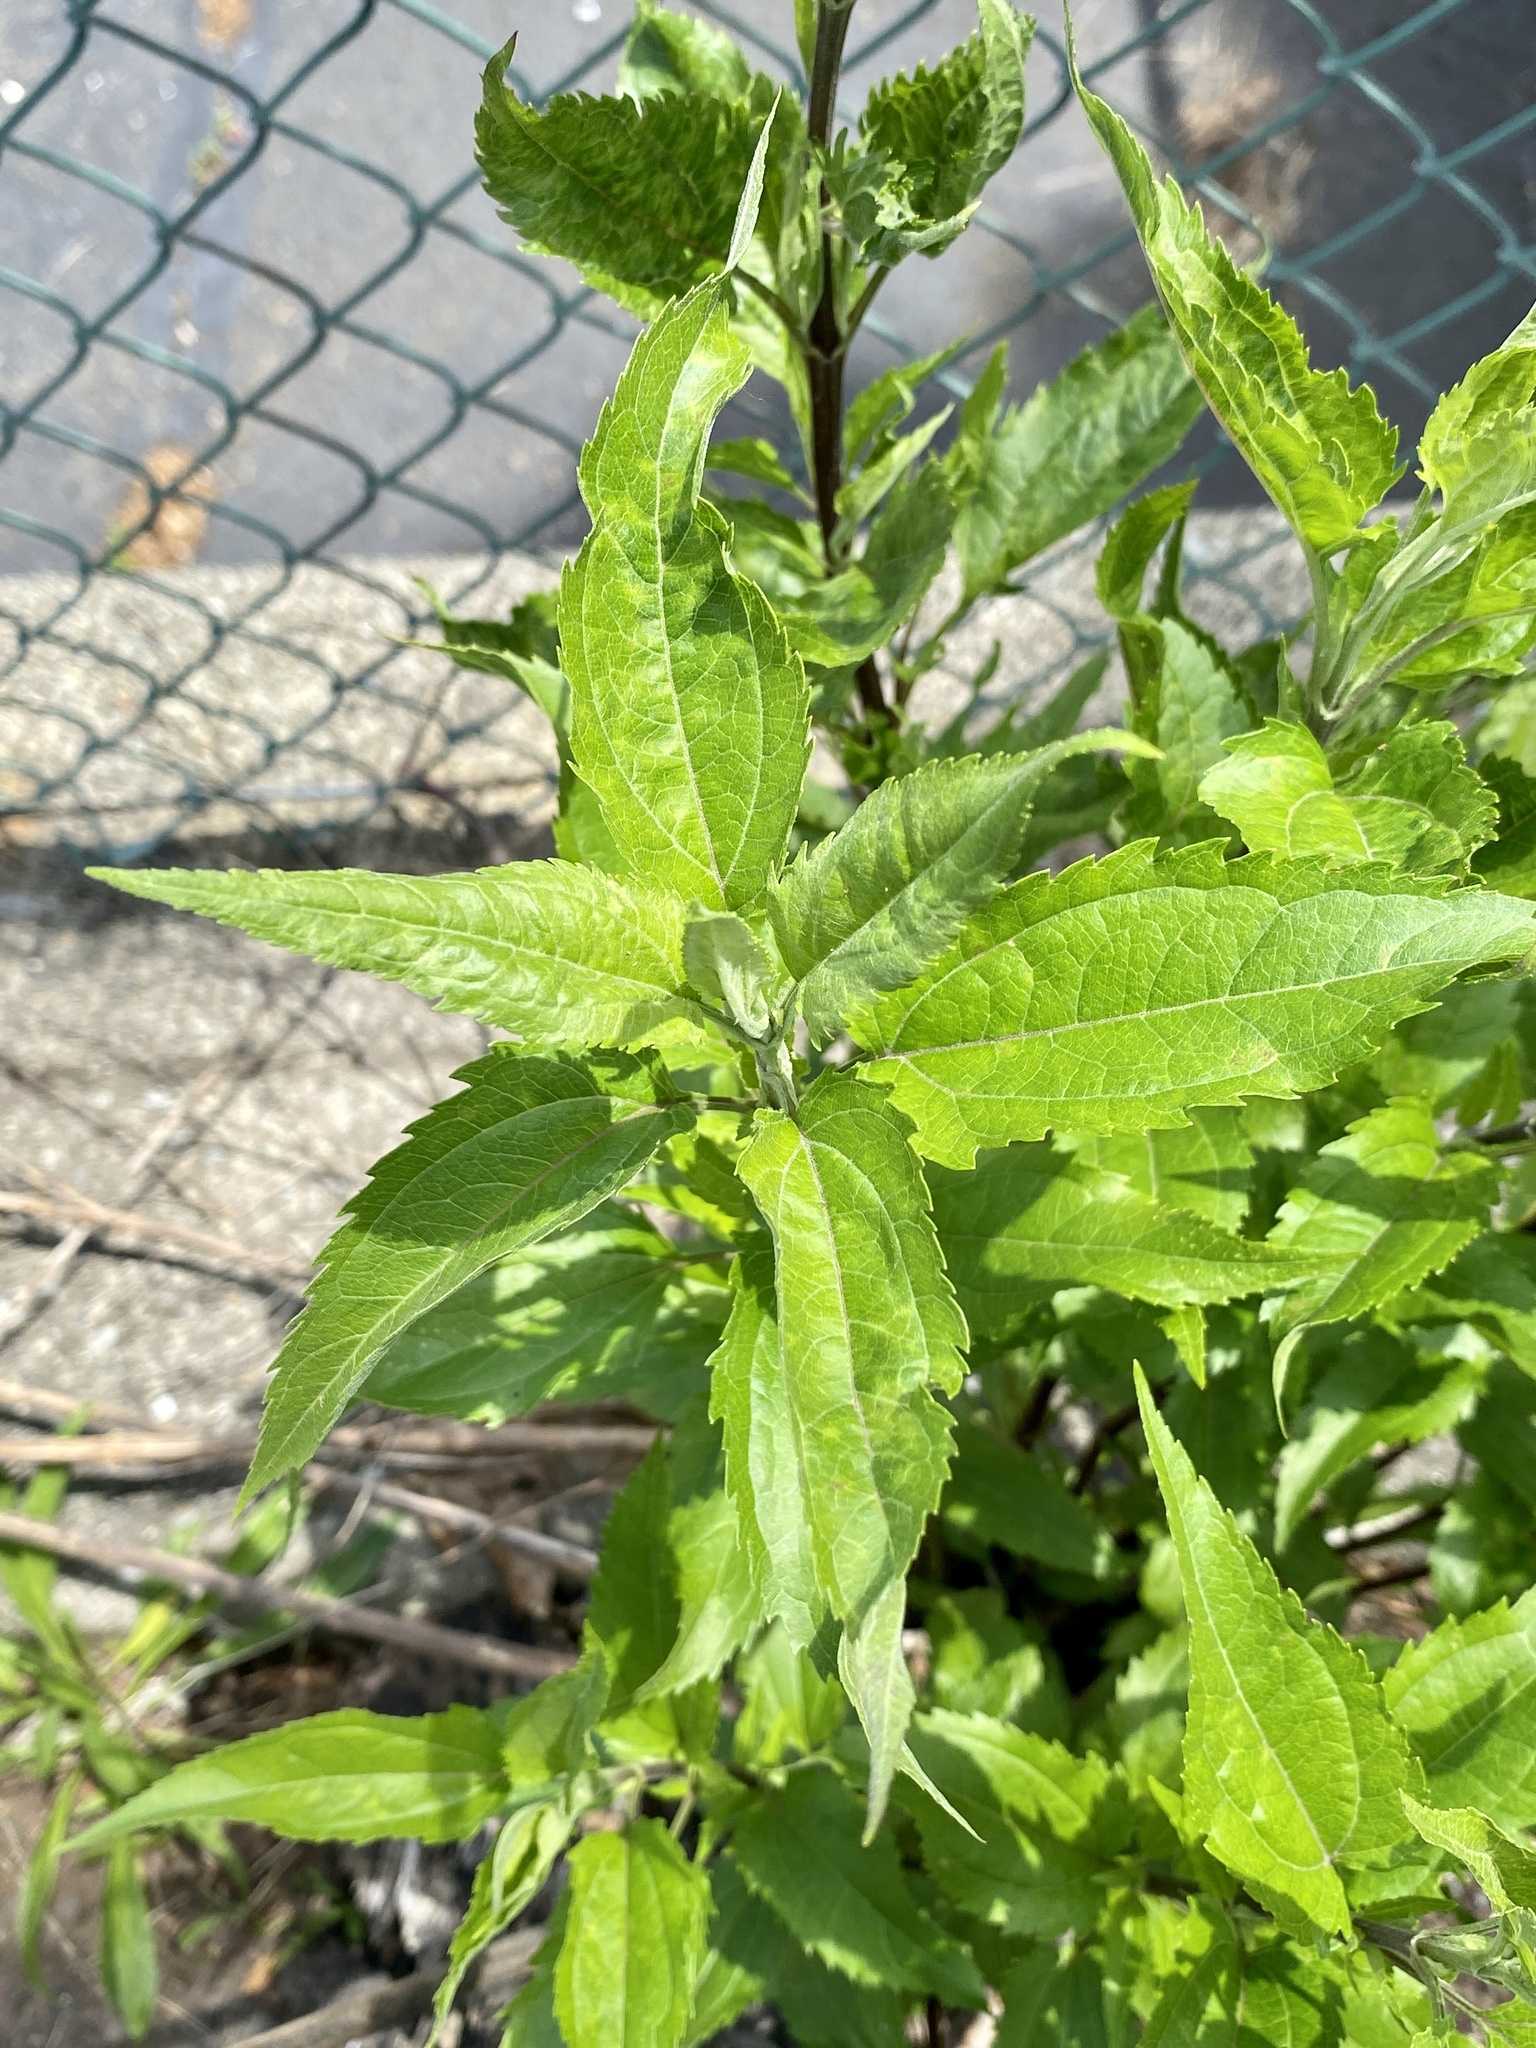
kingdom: Plantae
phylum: Tracheophyta
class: Magnoliopsida
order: Asterales
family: Asteraceae
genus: Eupatorium
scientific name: Eupatorium serotinum
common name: Late boneset
